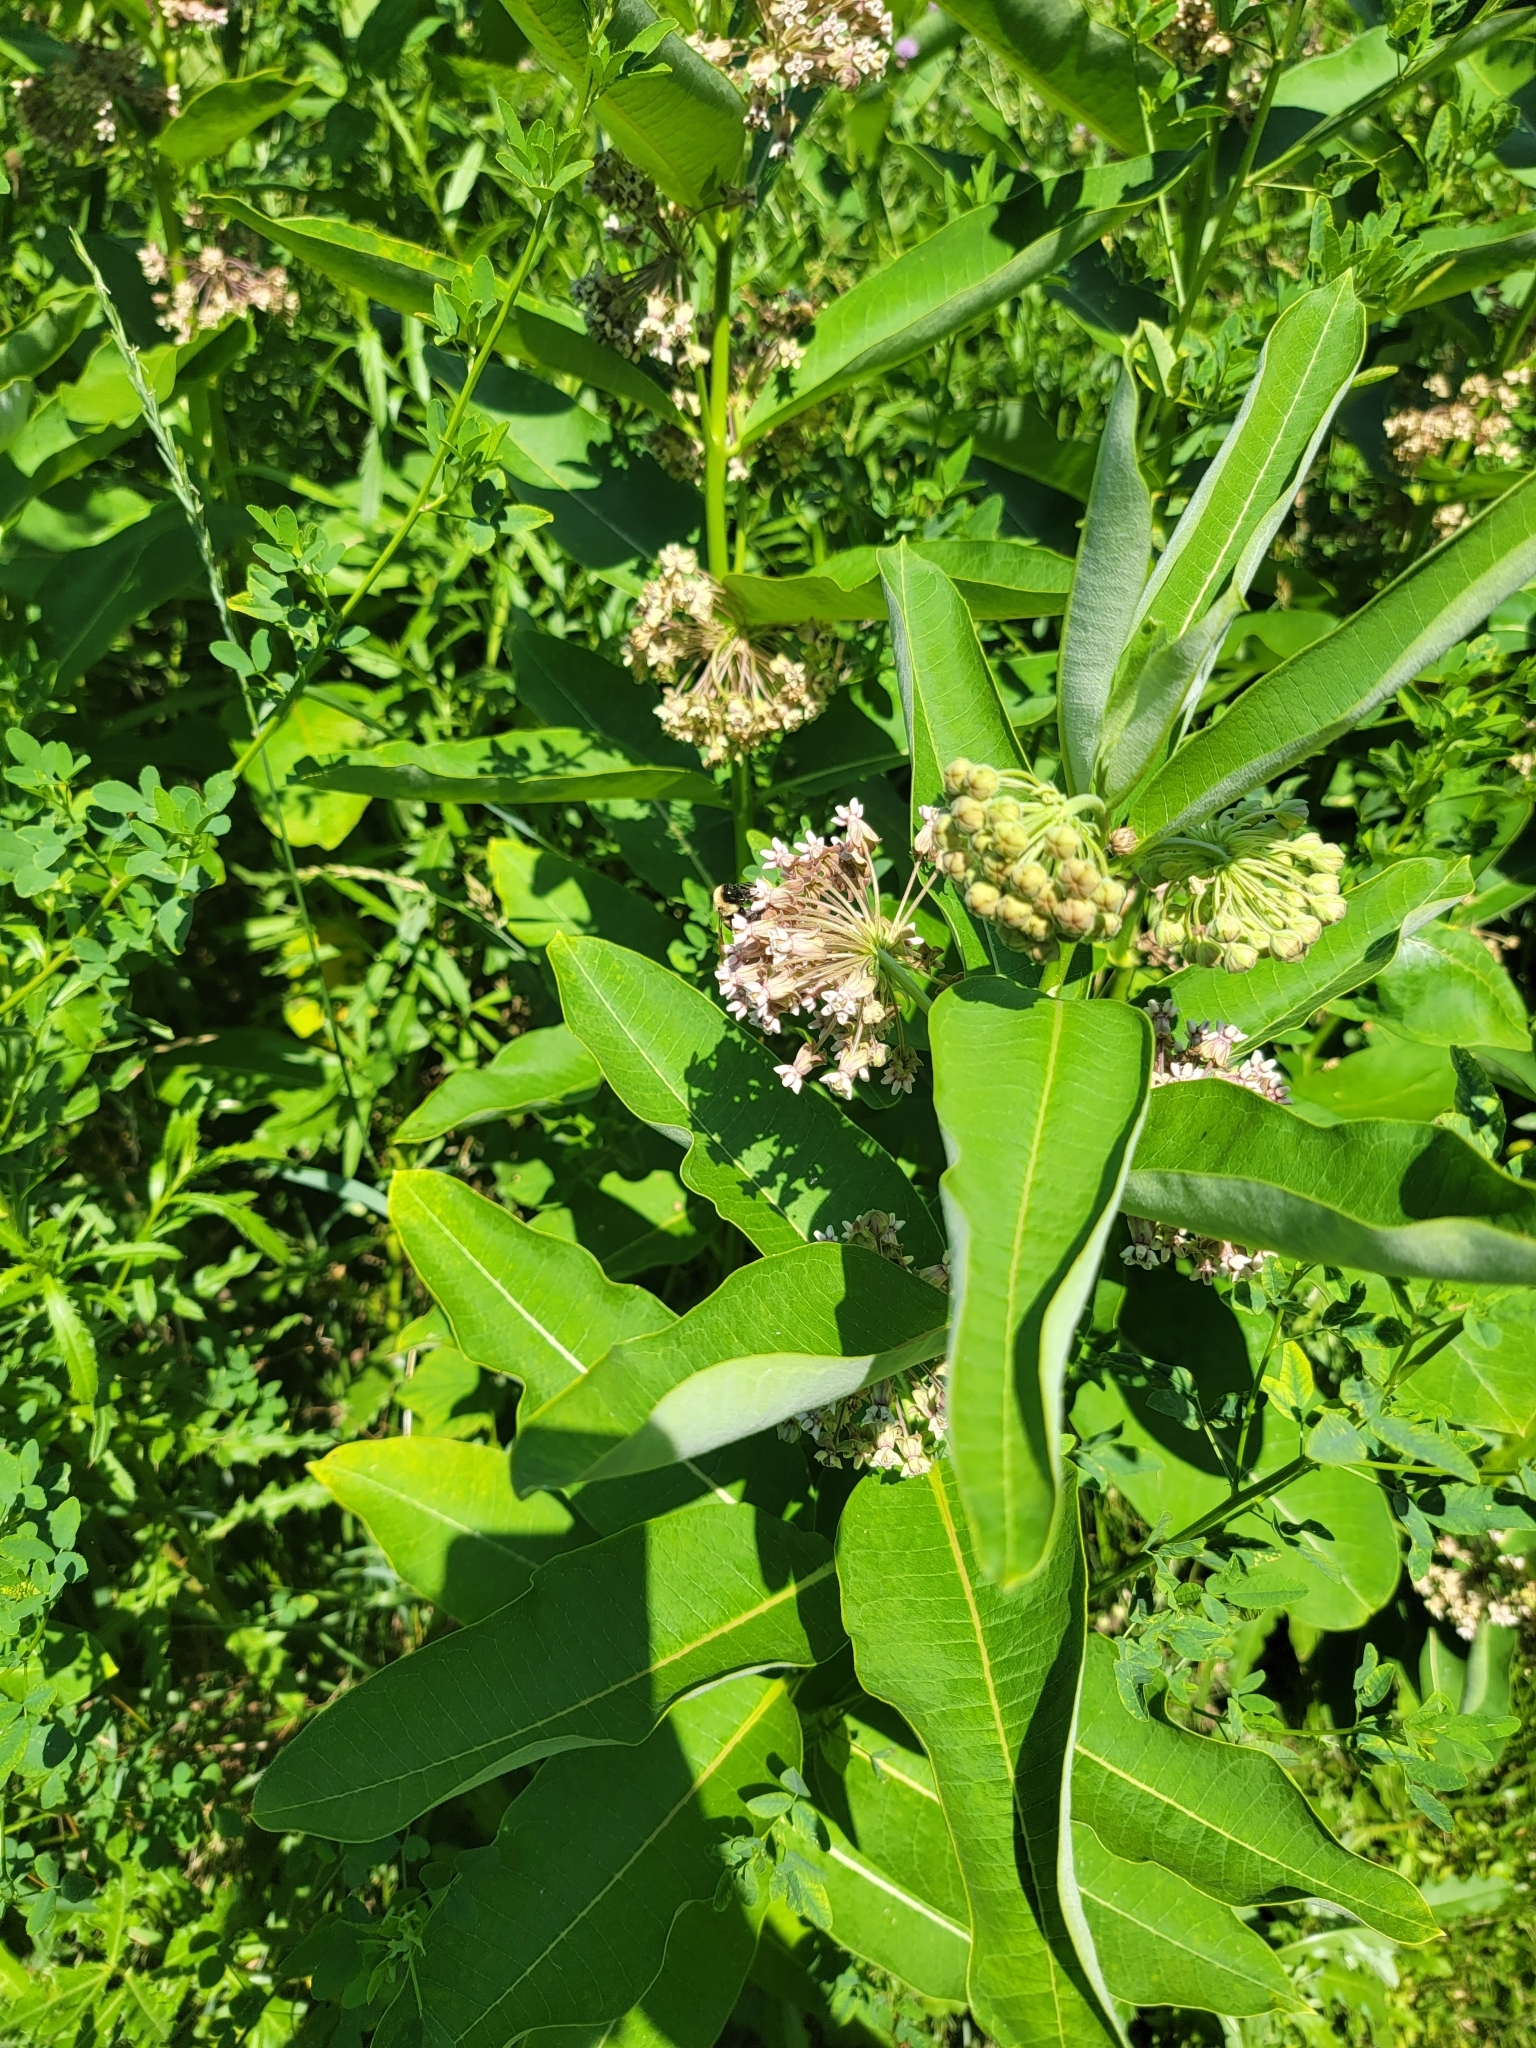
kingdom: Plantae
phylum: Tracheophyta
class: Magnoliopsida
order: Gentianales
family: Apocynaceae
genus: Asclepias
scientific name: Asclepias syriaca
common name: Common milkweed
